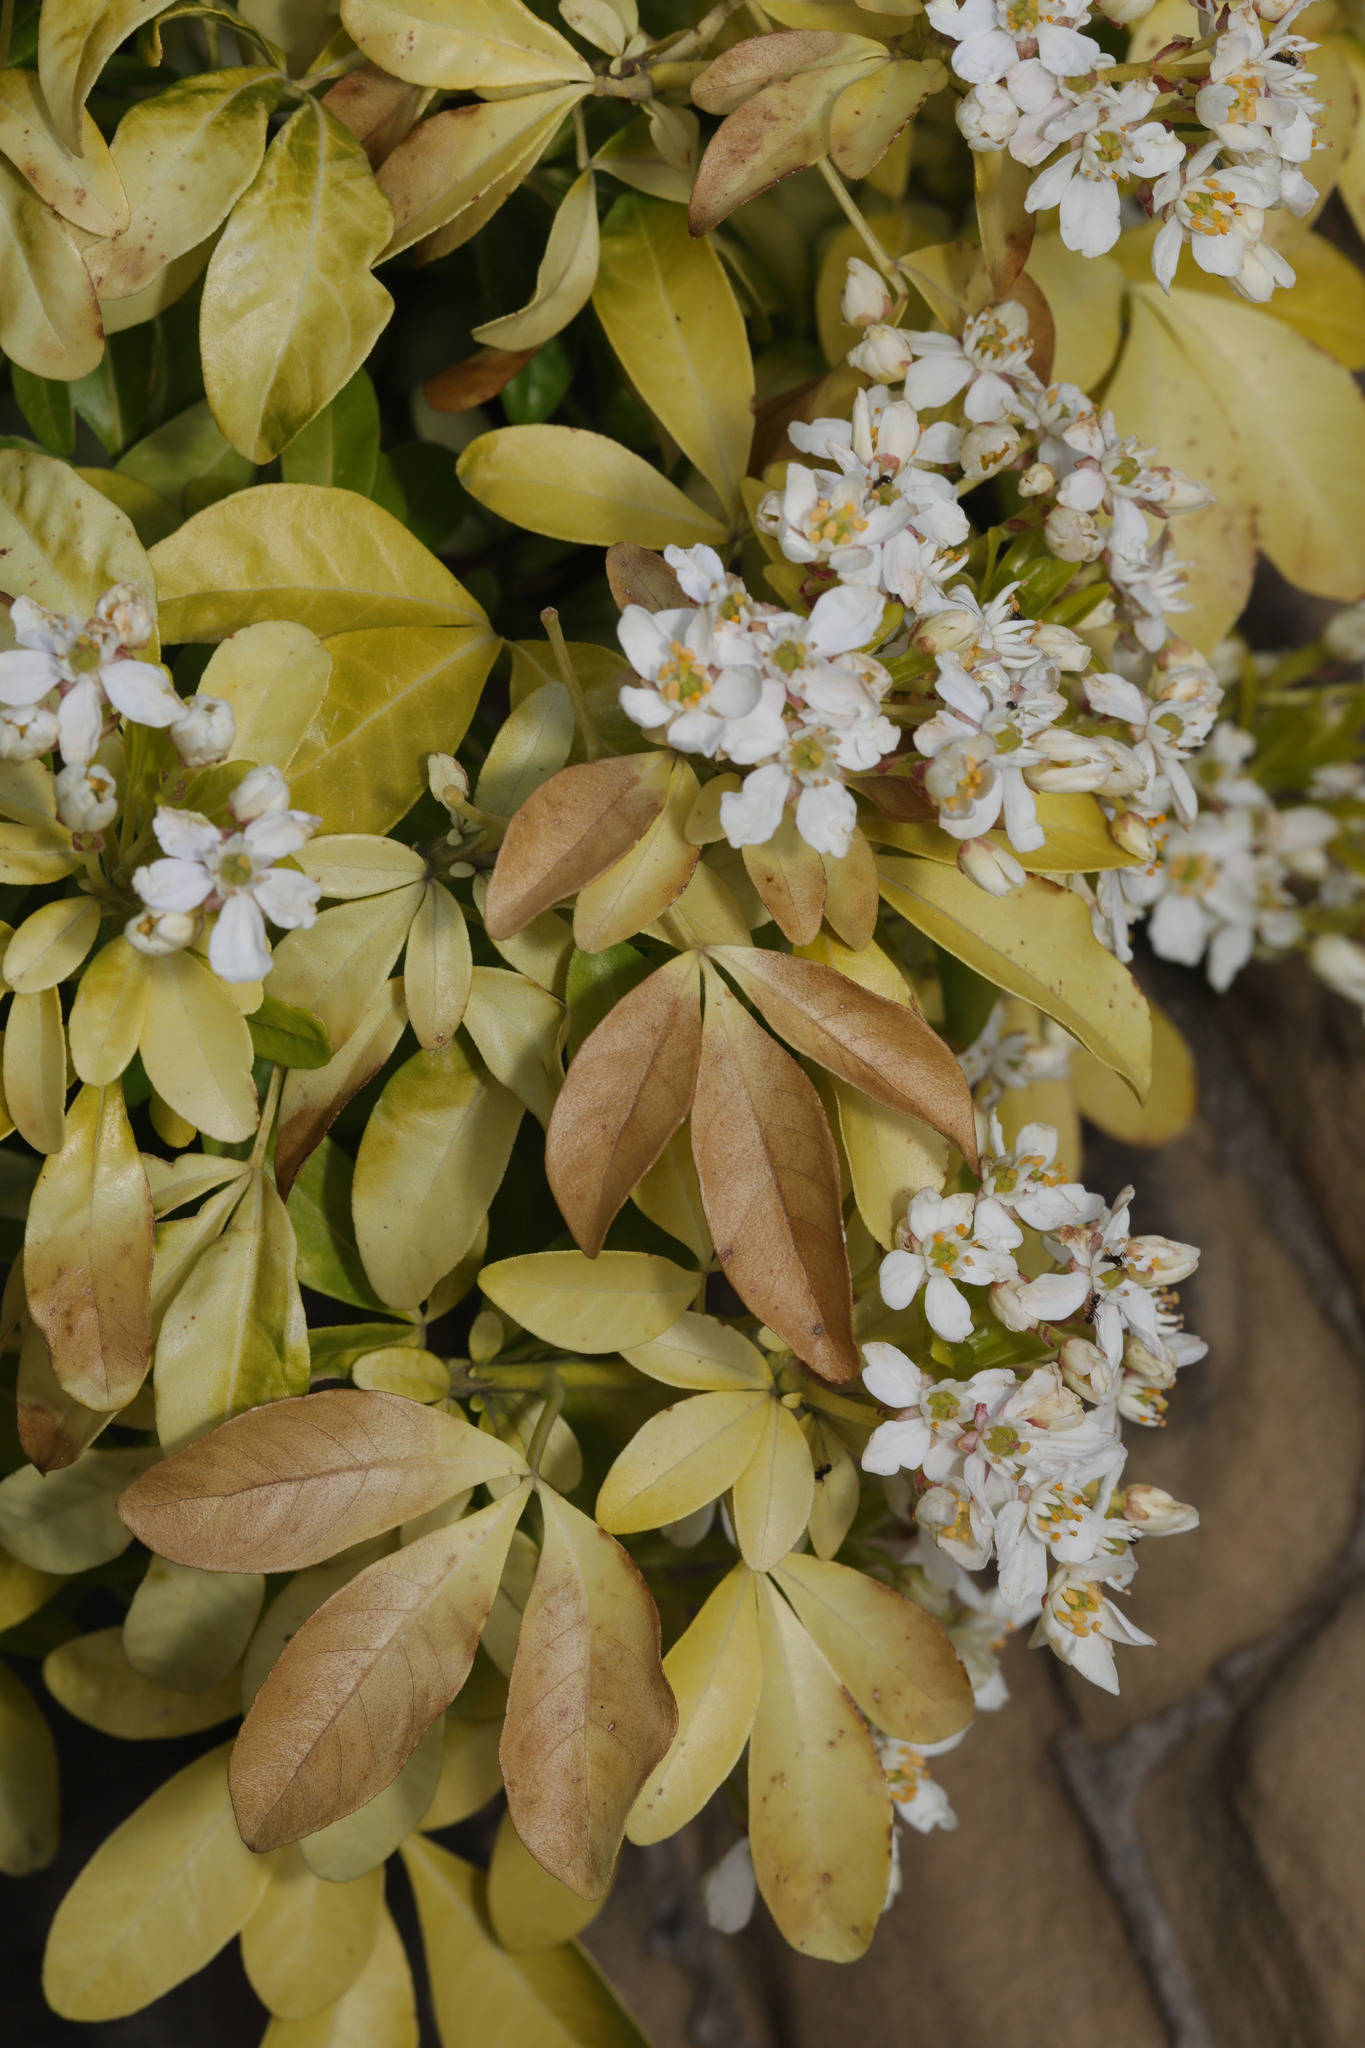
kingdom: Plantae
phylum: Tracheophyta
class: Magnoliopsida
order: Sapindales
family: Rutaceae
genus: Choisya
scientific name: Choisya ternata
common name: Mexican orange
